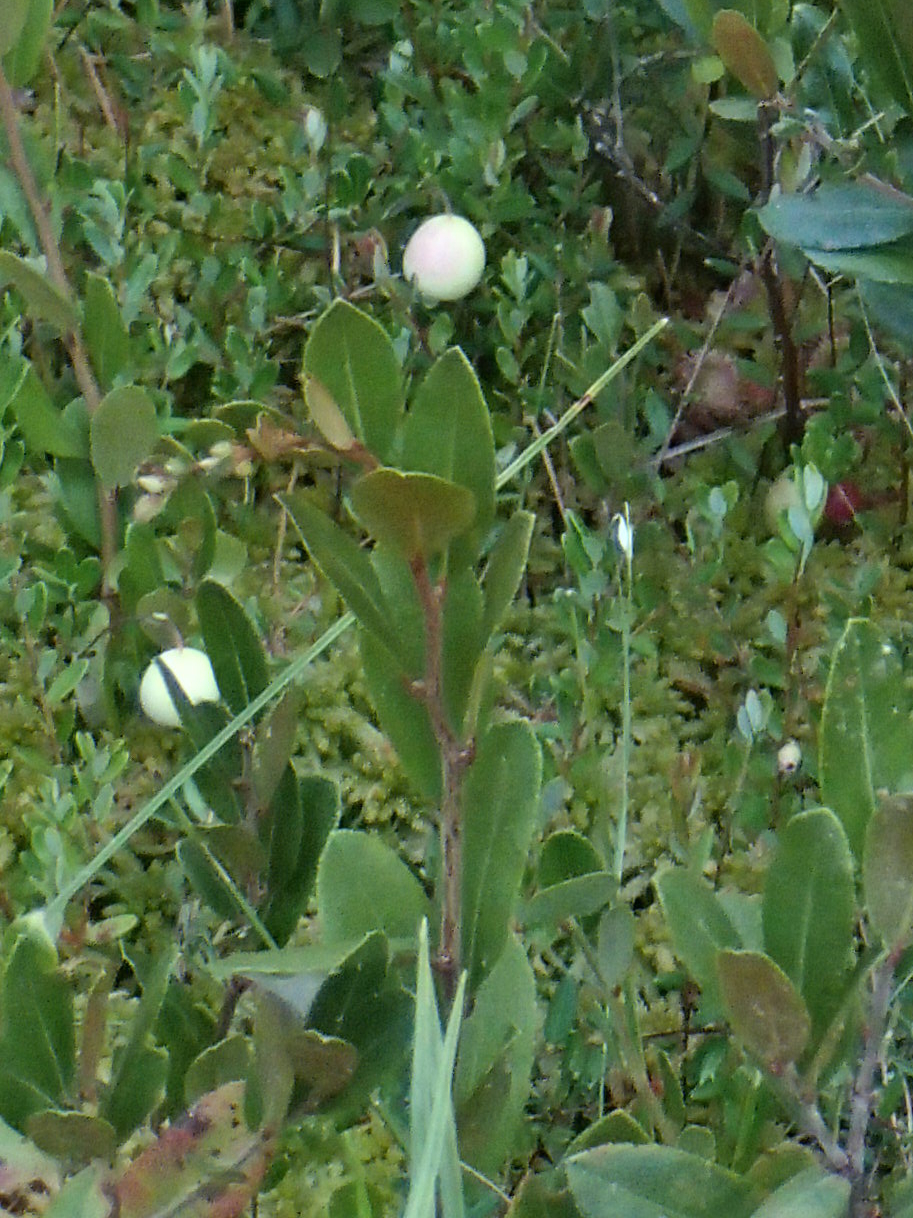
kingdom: Plantae
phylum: Tracheophyta
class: Magnoliopsida
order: Ericales
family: Ericaceae
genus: Vaccinium
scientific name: Vaccinium macrocarpon
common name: American cranberry
